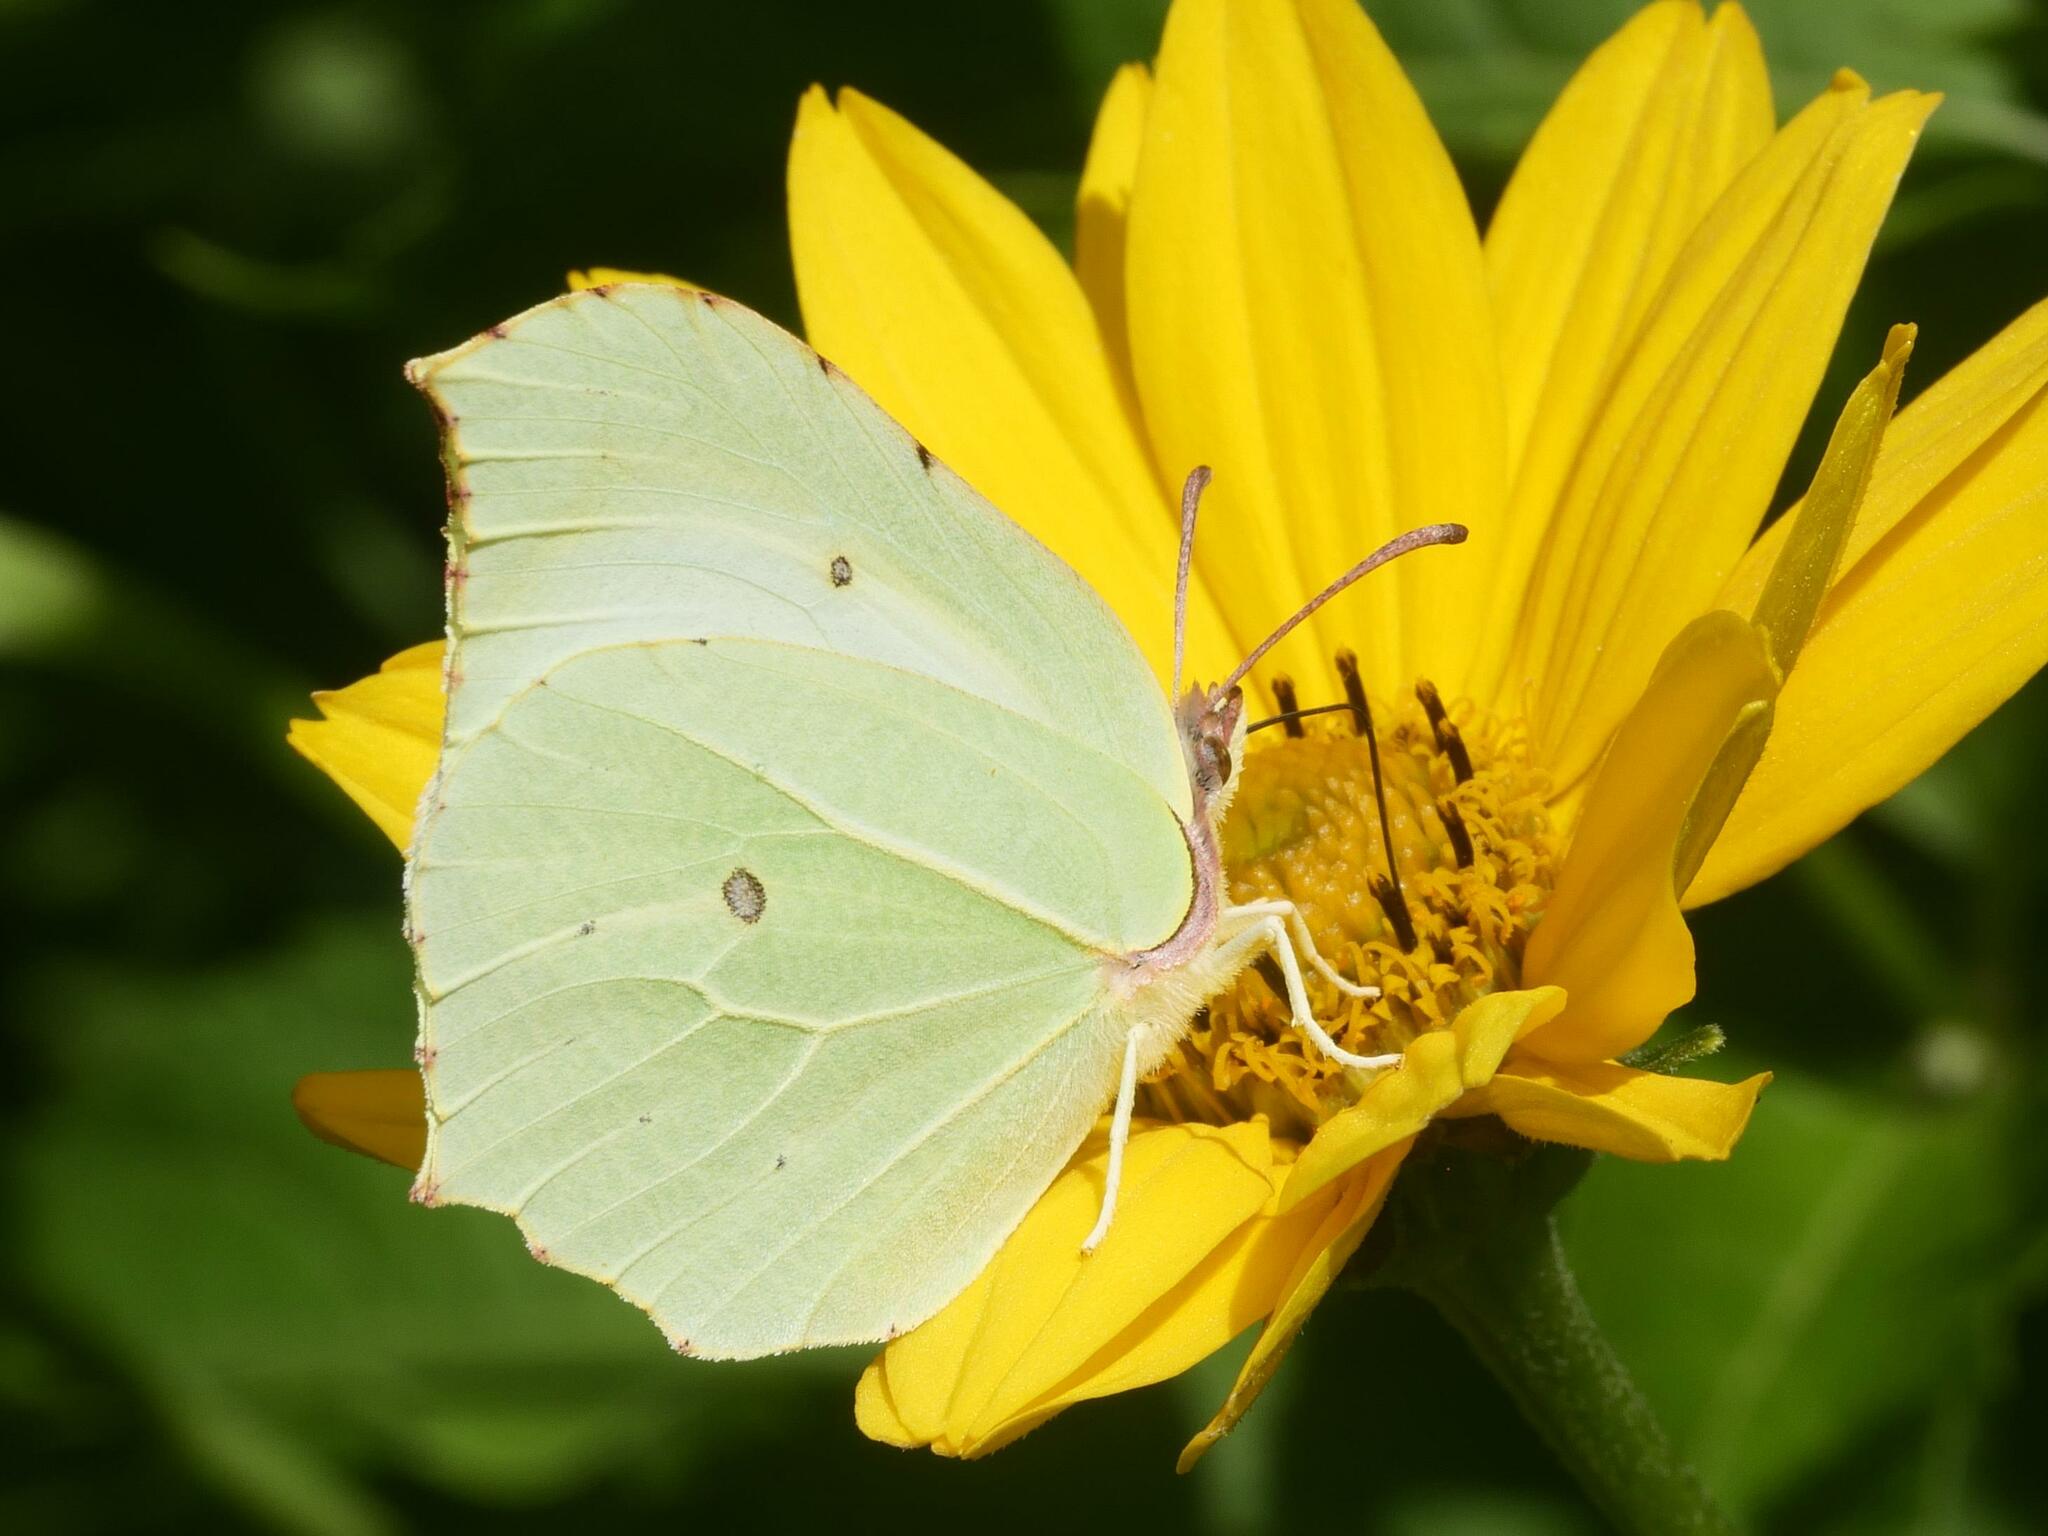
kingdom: Animalia
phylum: Arthropoda
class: Insecta
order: Lepidoptera
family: Pieridae
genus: Gonepteryx
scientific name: Gonepteryx rhamni
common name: Brimstone
